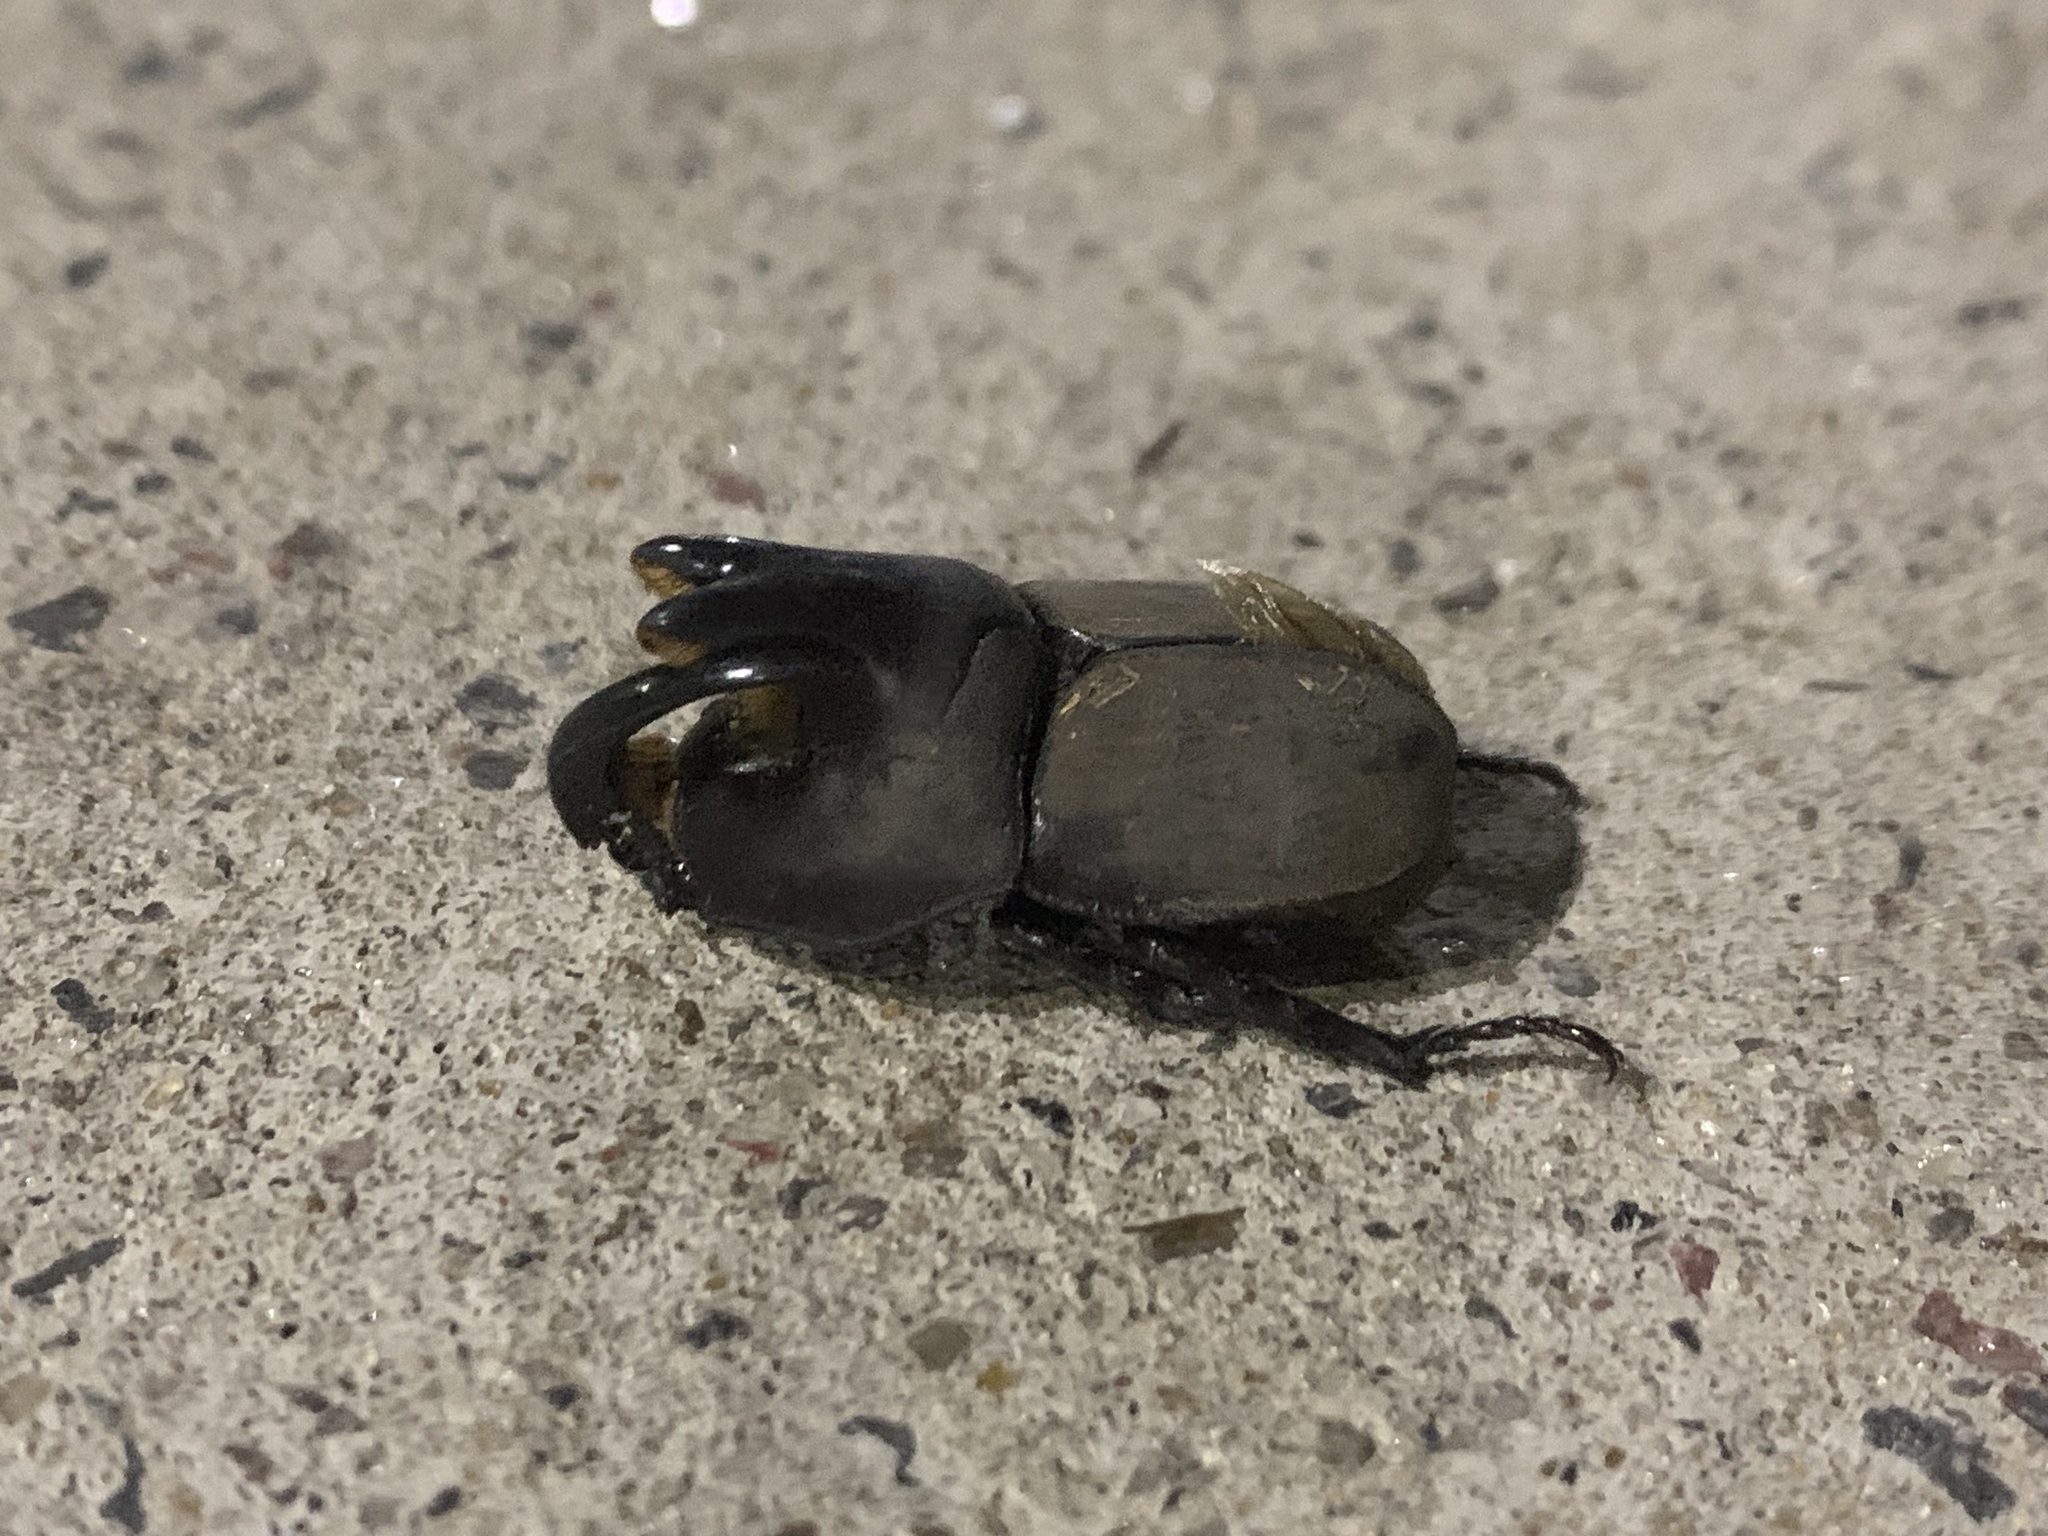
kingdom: Animalia
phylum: Arthropoda
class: Insecta
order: Coleoptera
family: Scarabaeidae
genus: Diloboderus
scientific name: Diloboderus abderus
